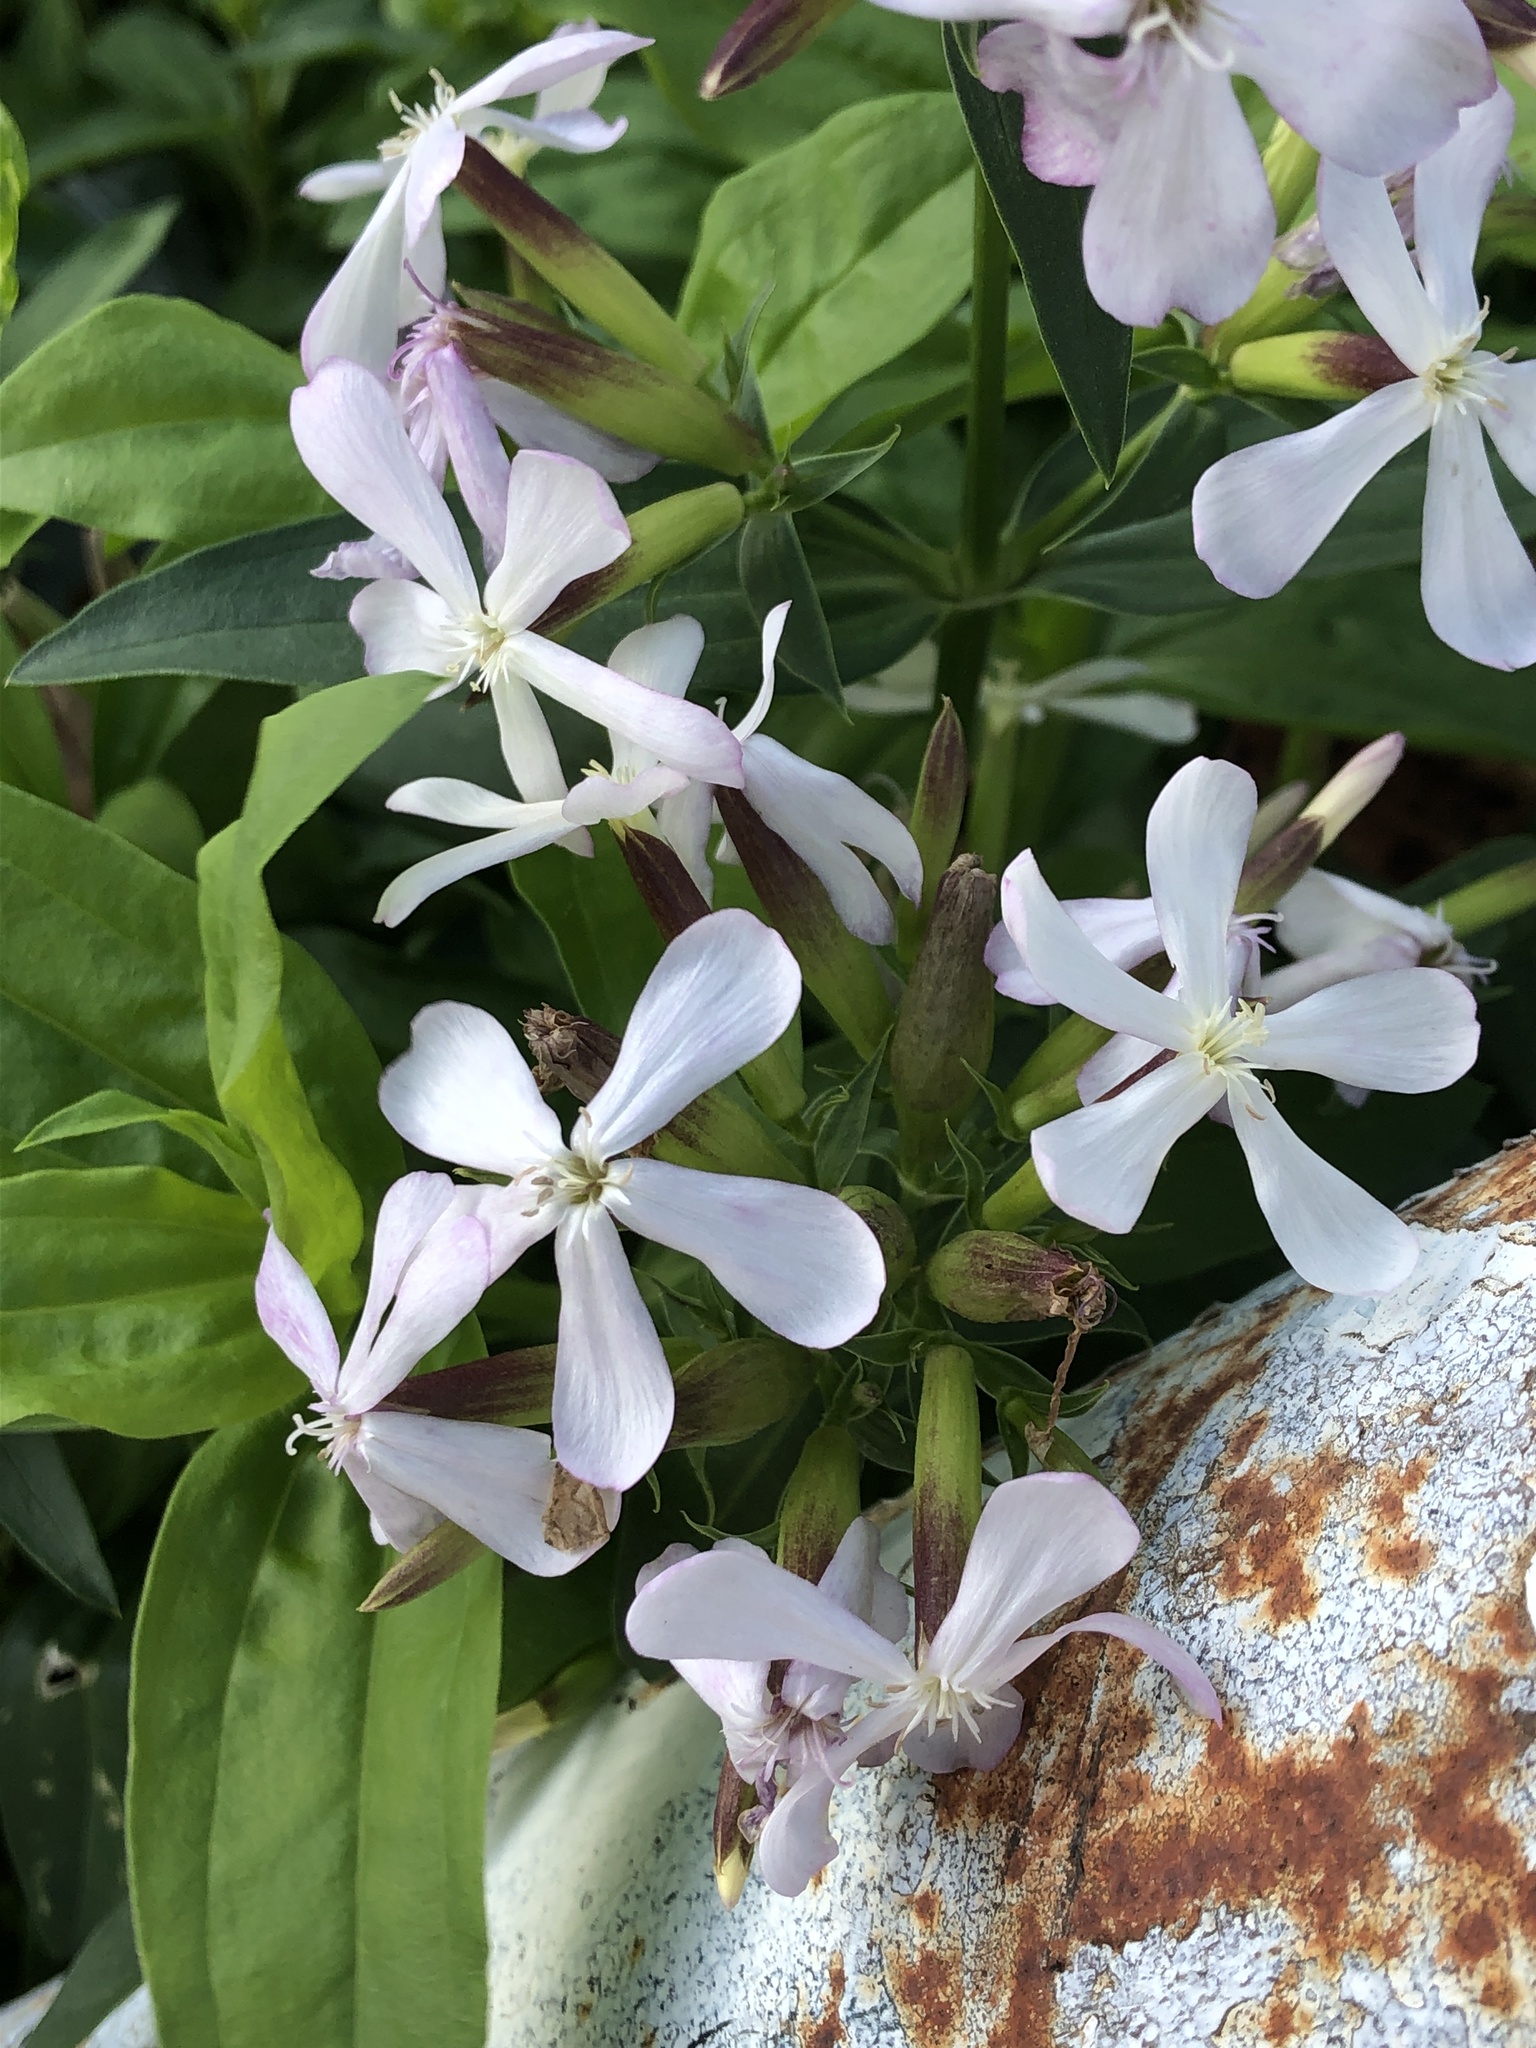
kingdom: Plantae
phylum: Tracheophyta
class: Magnoliopsida
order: Caryophyllales
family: Caryophyllaceae
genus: Saponaria
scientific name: Saponaria officinalis
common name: Soapwort
